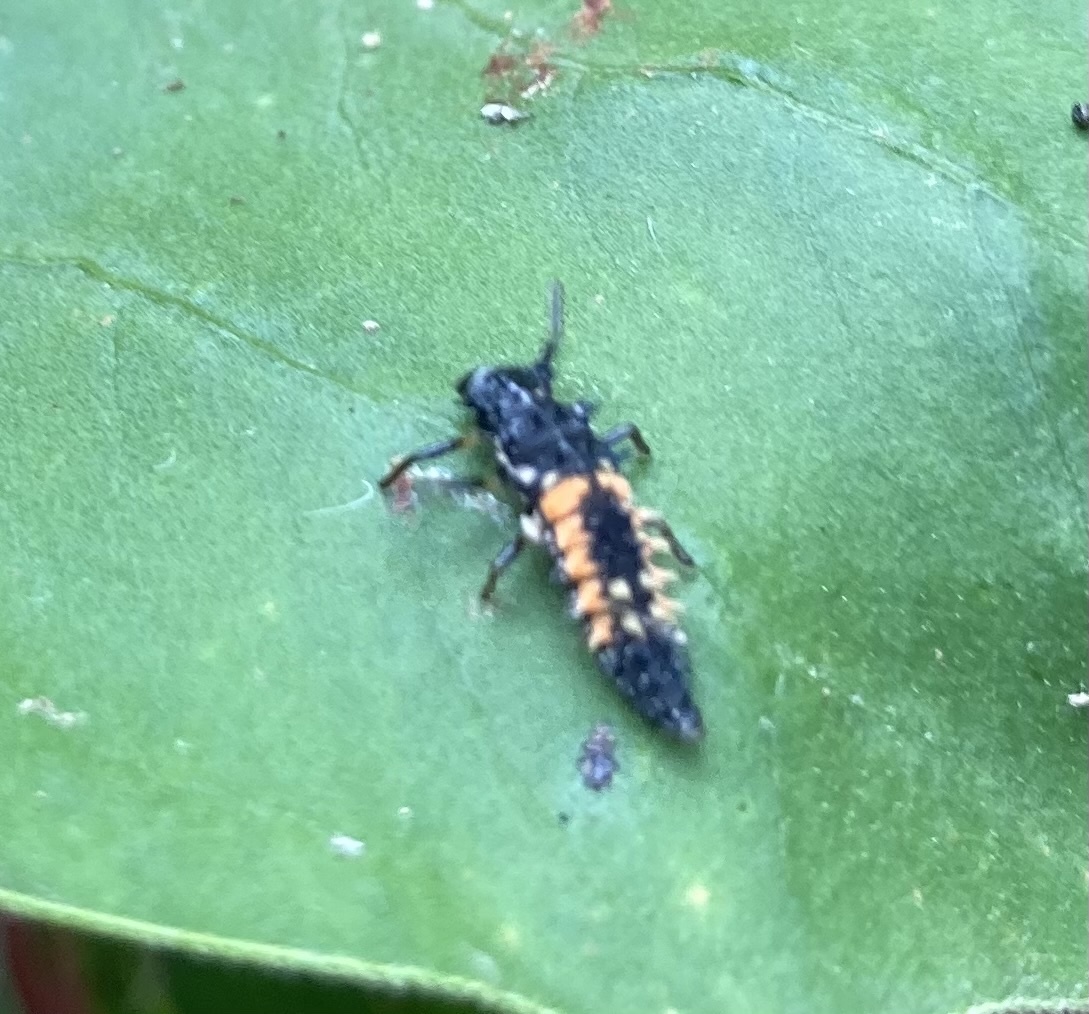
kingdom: Animalia
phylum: Arthropoda
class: Insecta
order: Coleoptera
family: Coccinellidae
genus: Harmonia
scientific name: Harmonia axyridis
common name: Harlequin ladybird
